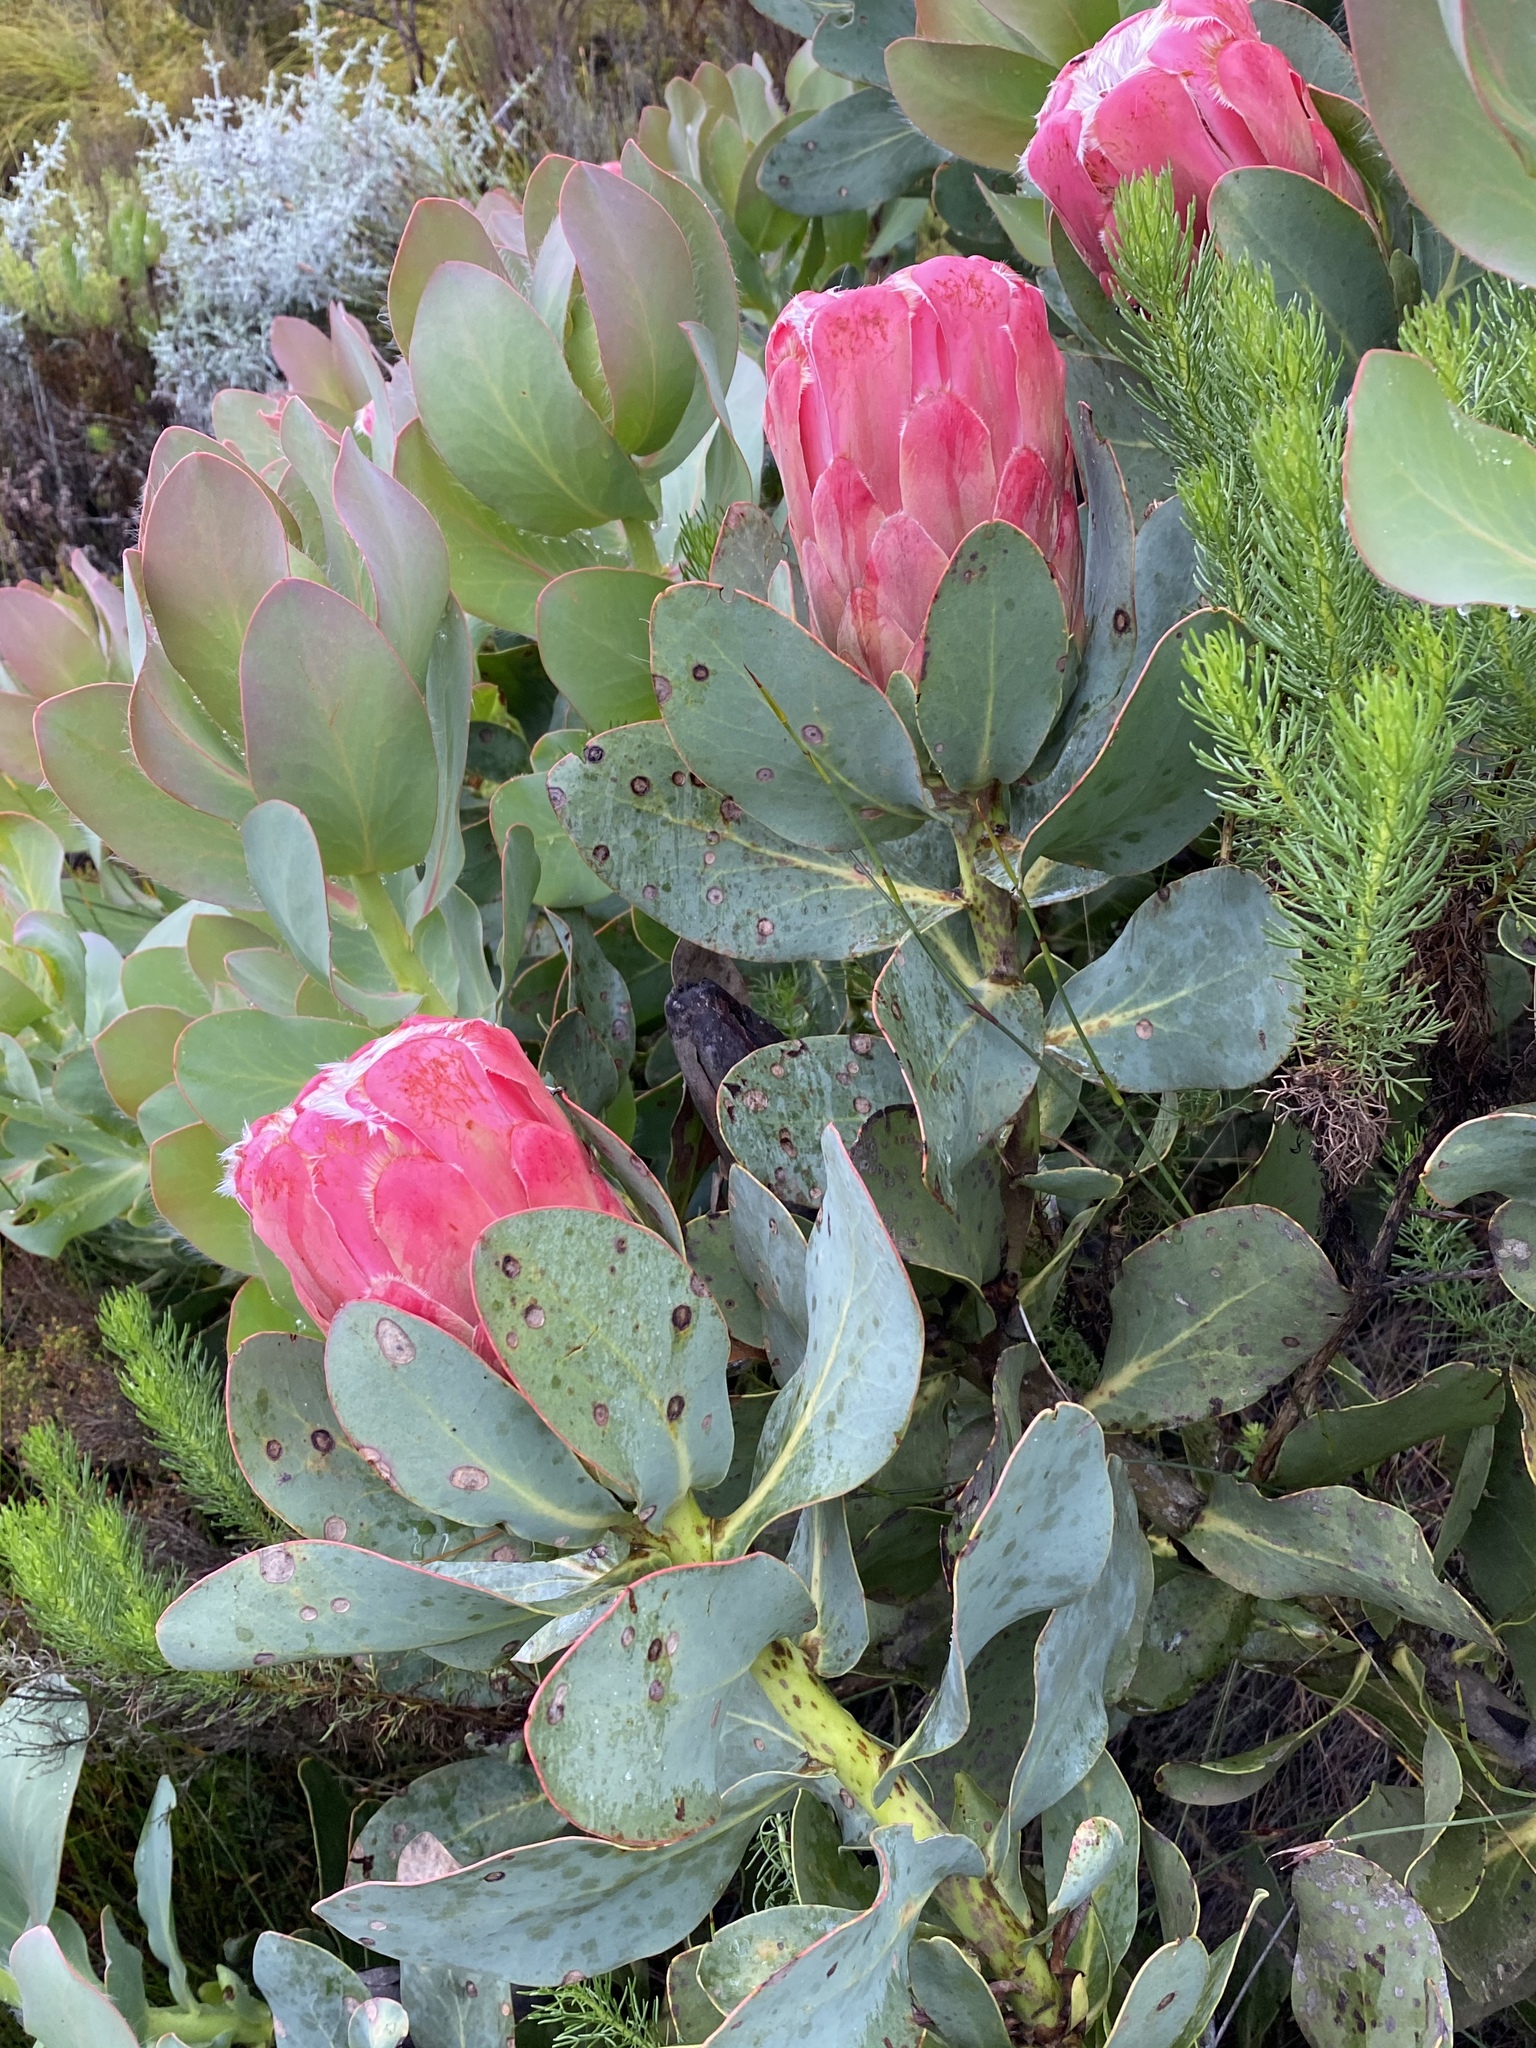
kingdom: Plantae
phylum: Tracheophyta
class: Magnoliopsida
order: Proteales
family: Proteaceae
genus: Protea
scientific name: Protea grandiceps
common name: Red sugarbush
